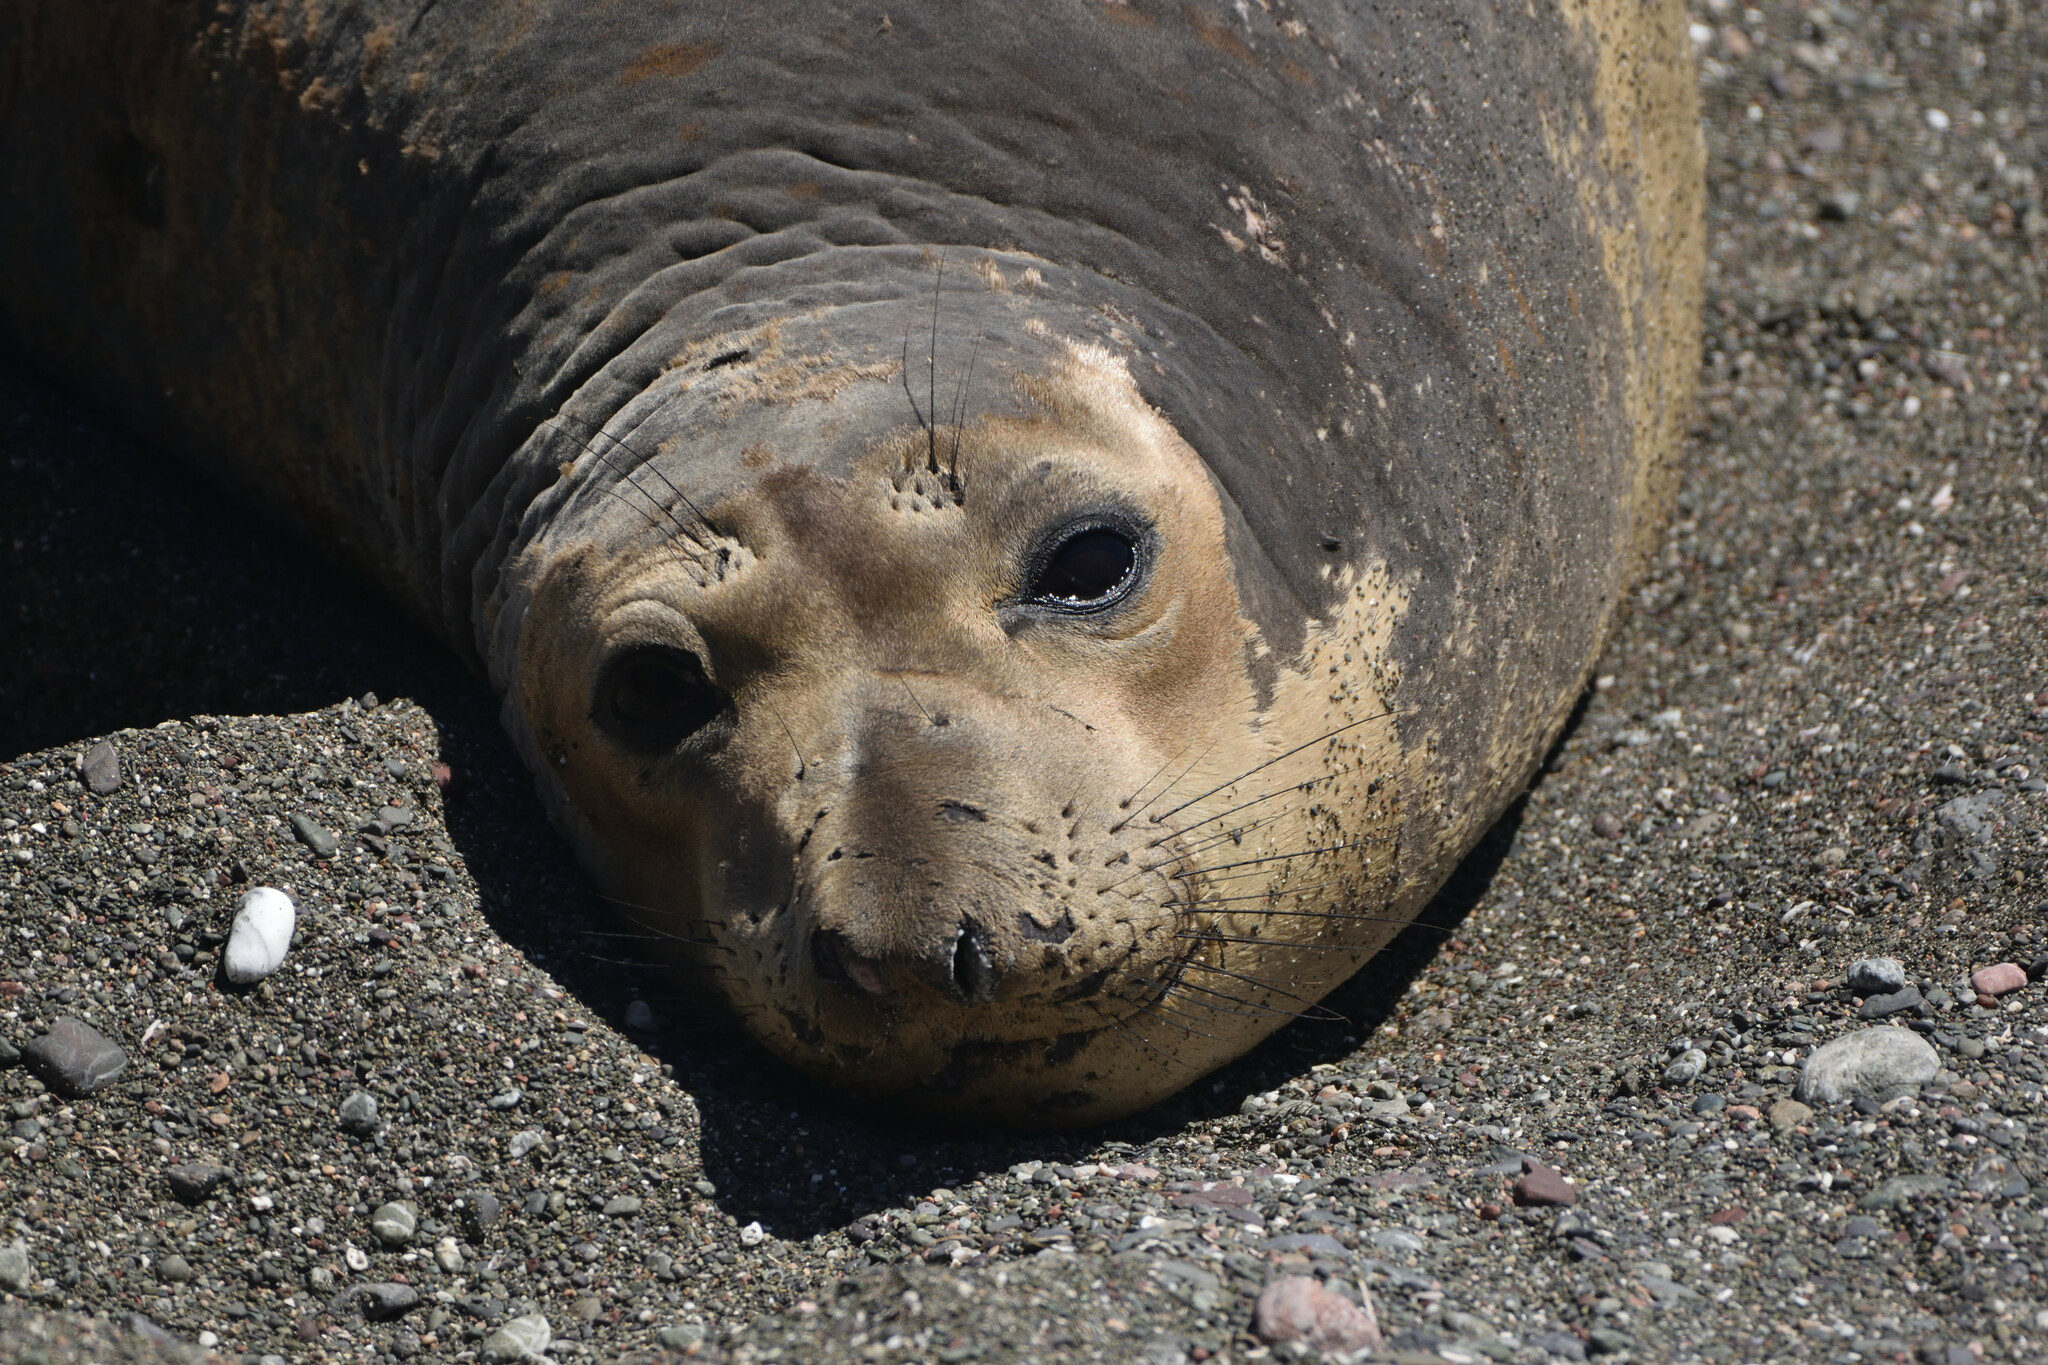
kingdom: Animalia
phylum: Chordata
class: Mammalia
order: Carnivora
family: Phocidae
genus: Mirounga
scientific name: Mirounga angustirostris
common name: Northern elephant seal
